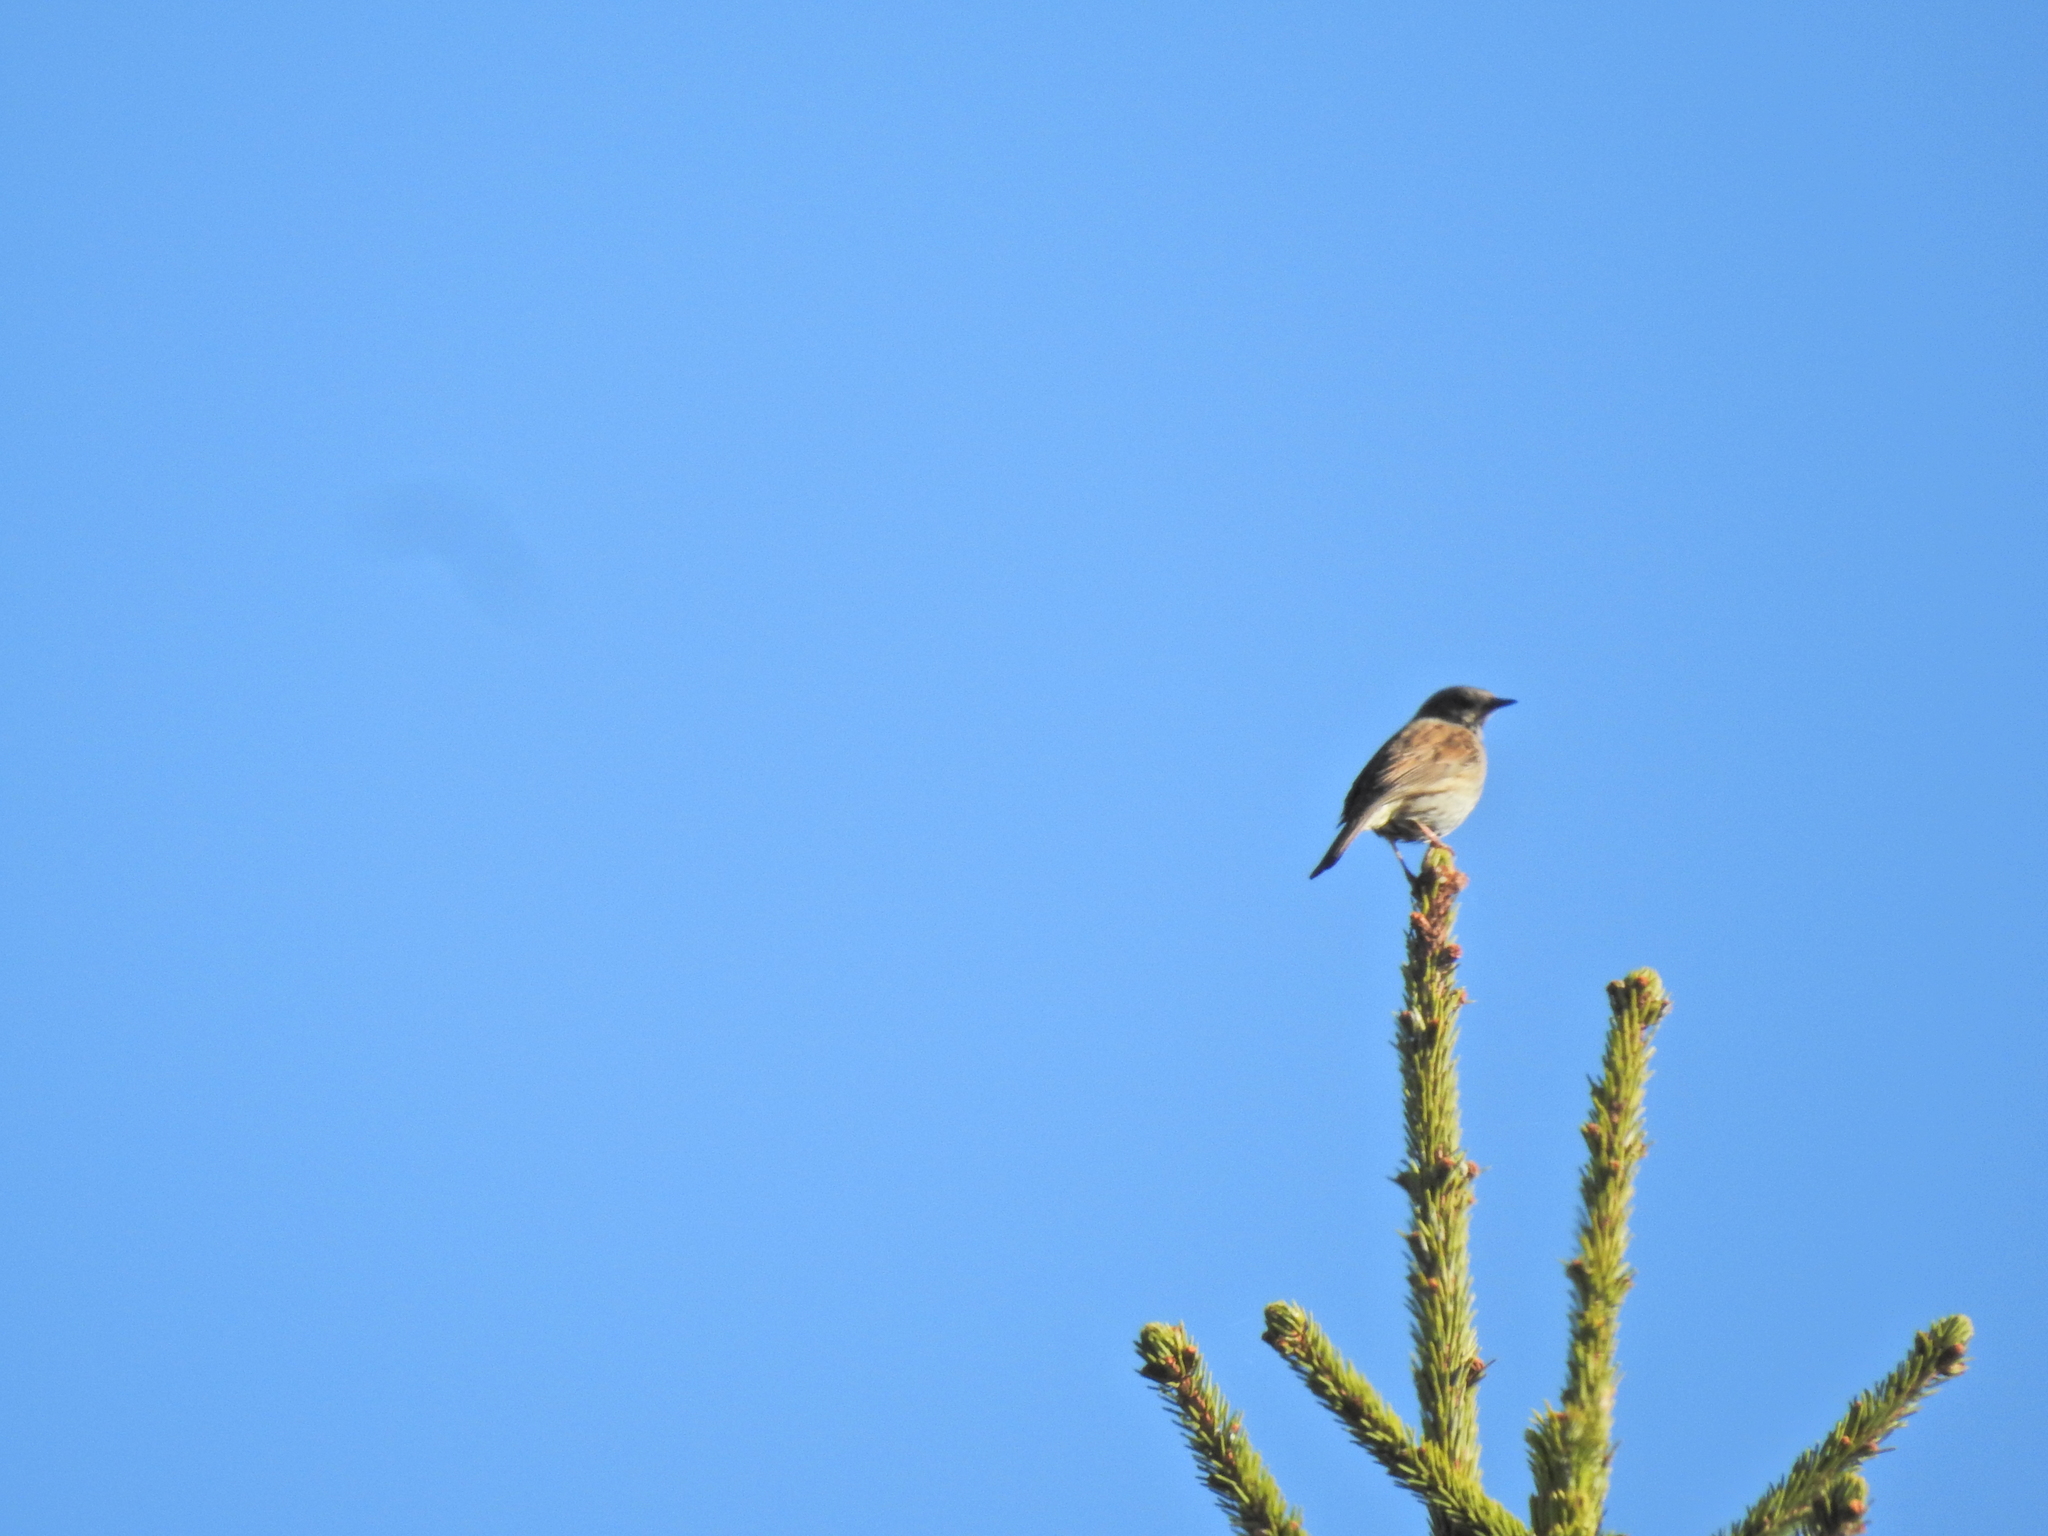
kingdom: Animalia
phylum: Chordata
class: Aves
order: Passeriformes
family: Prunellidae
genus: Prunella
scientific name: Prunella modularis
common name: Dunnock
